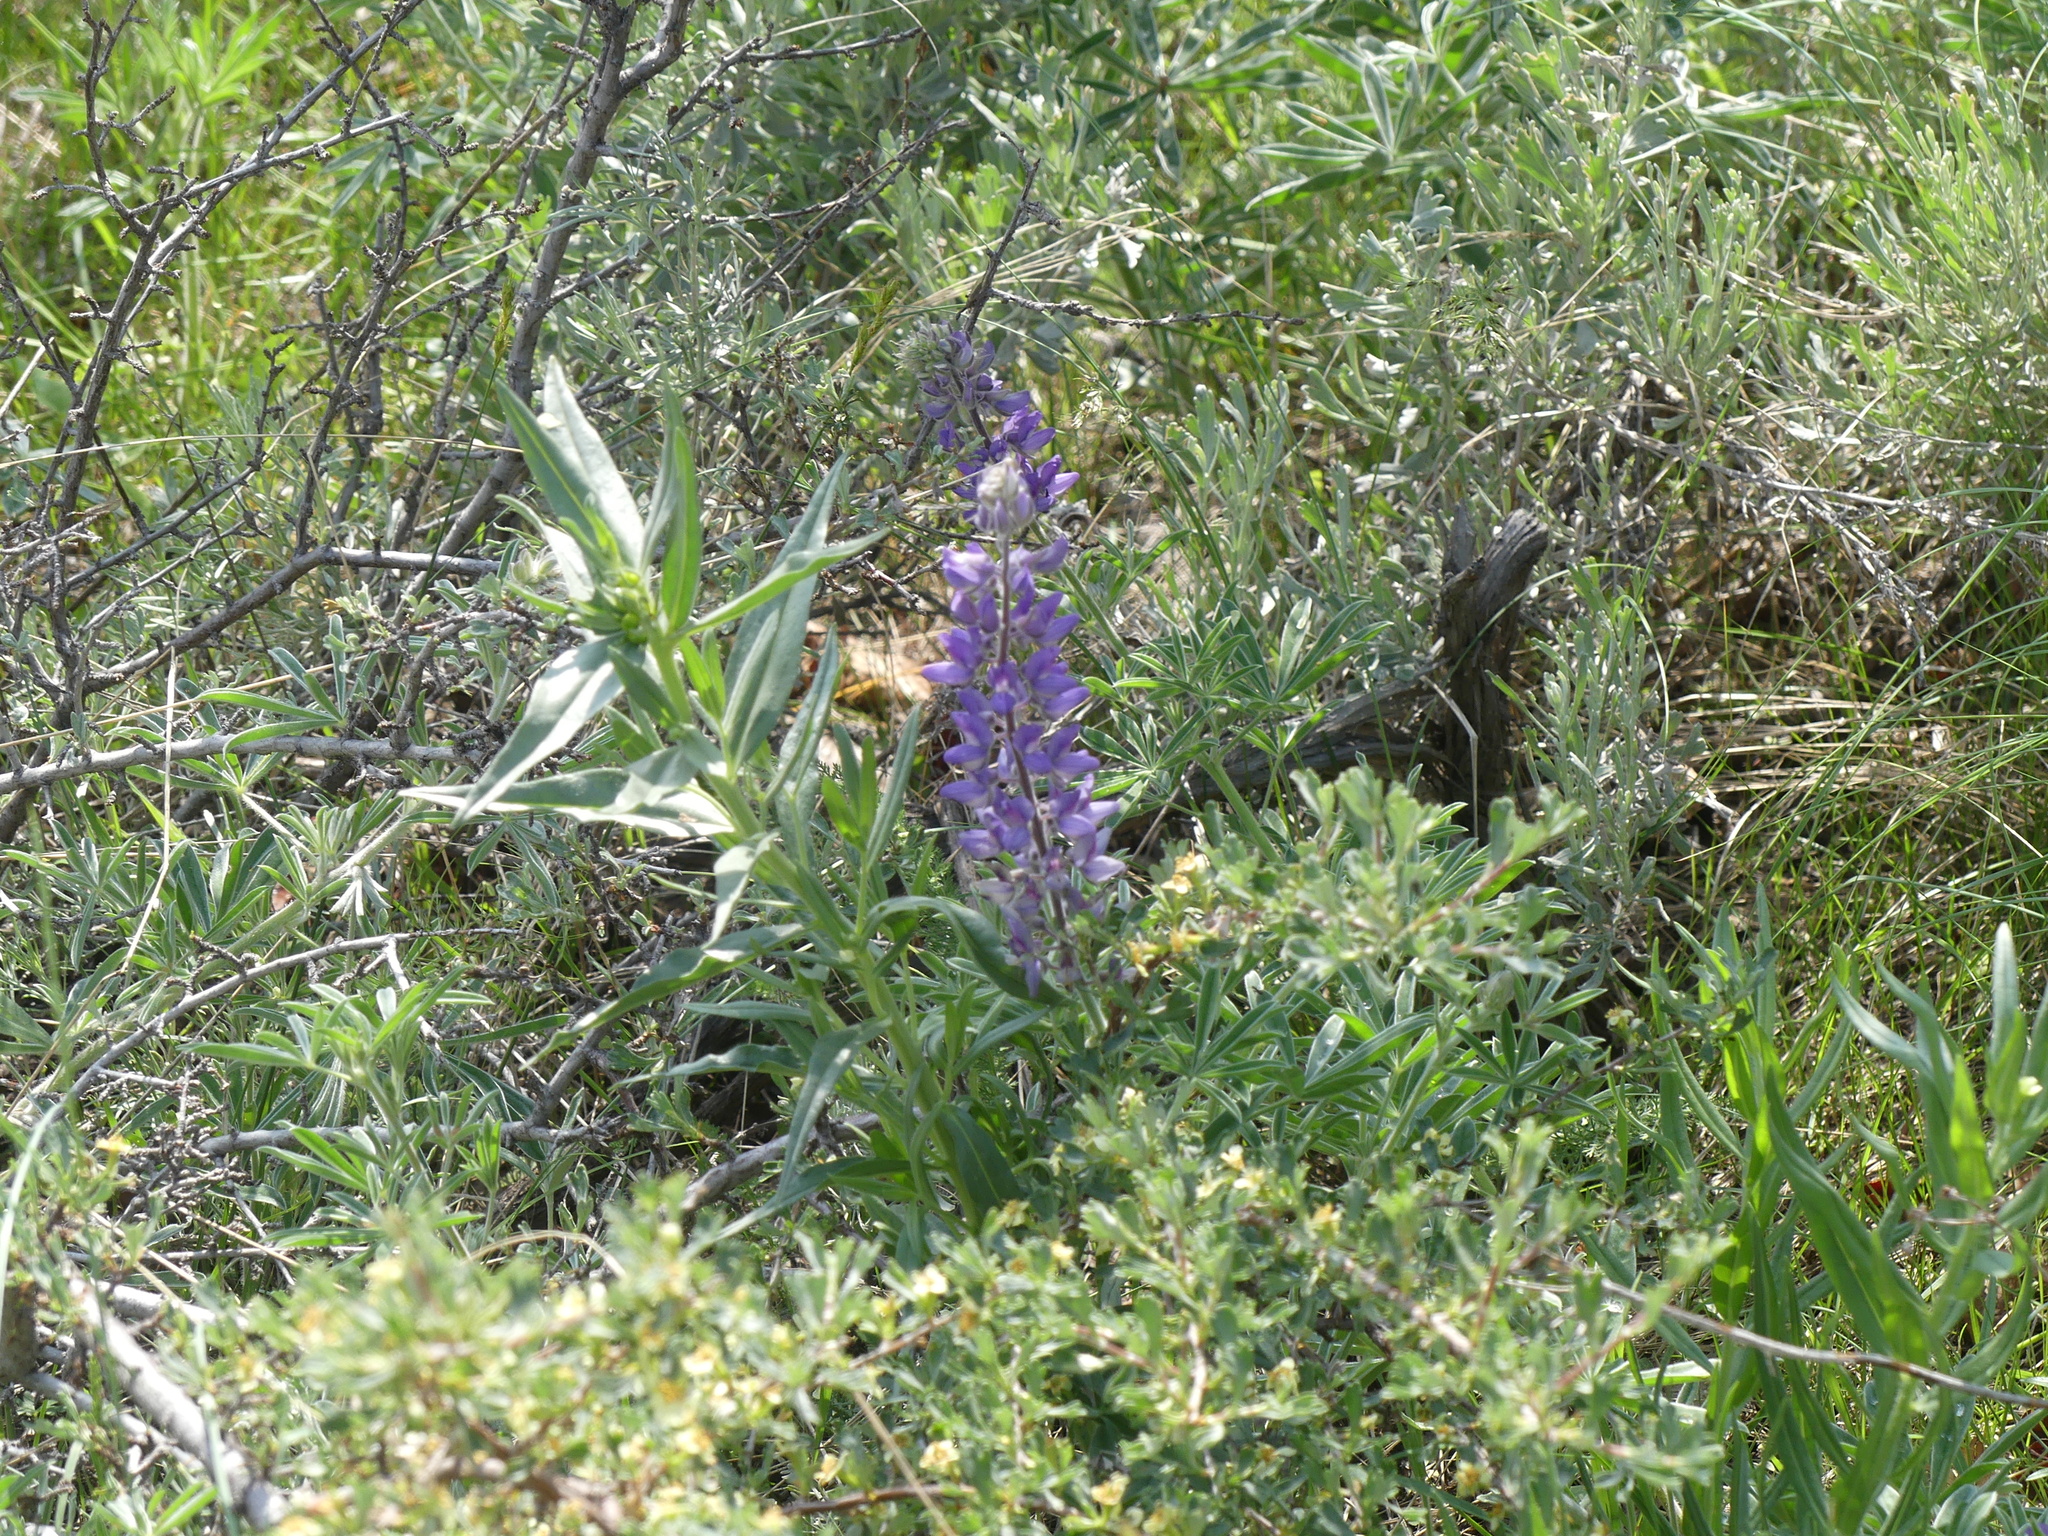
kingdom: Plantae
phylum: Tracheophyta
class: Magnoliopsida
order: Fabales
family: Fabaceae
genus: Lupinus
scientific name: Lupinus sericeus
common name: Silky lupine
